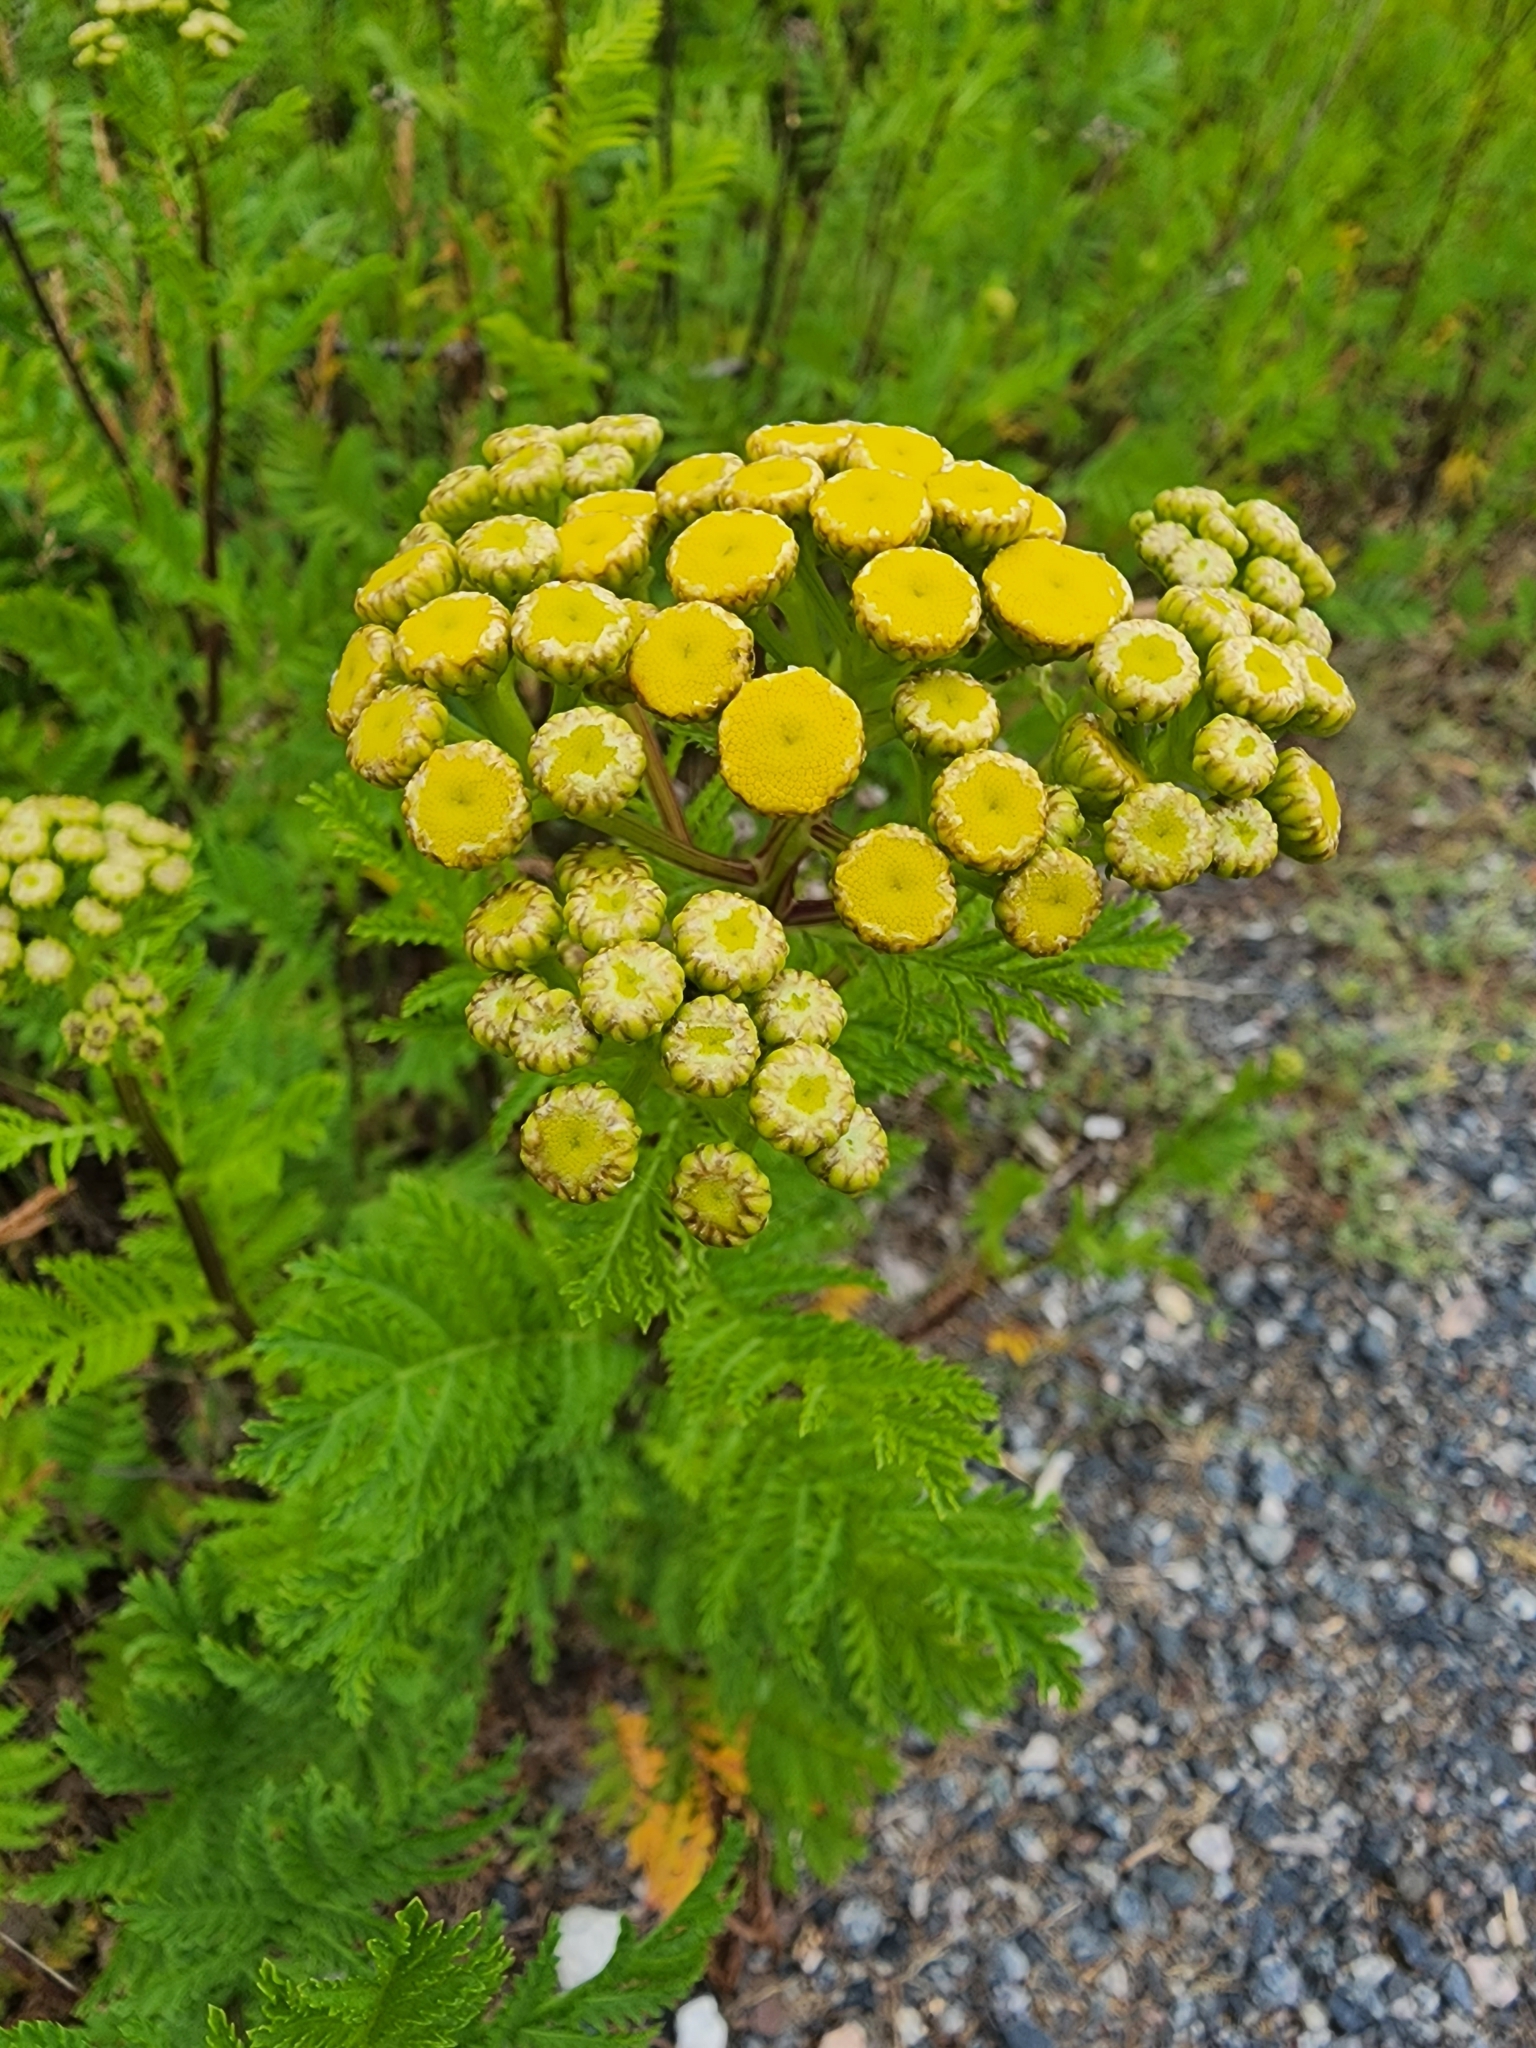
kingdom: Plantae
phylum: Tracheophyta
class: Magnoliopsida
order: Asterales
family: Asteraceae
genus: Tanacetum
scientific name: Tanacetum vulgare
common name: Common tansy
